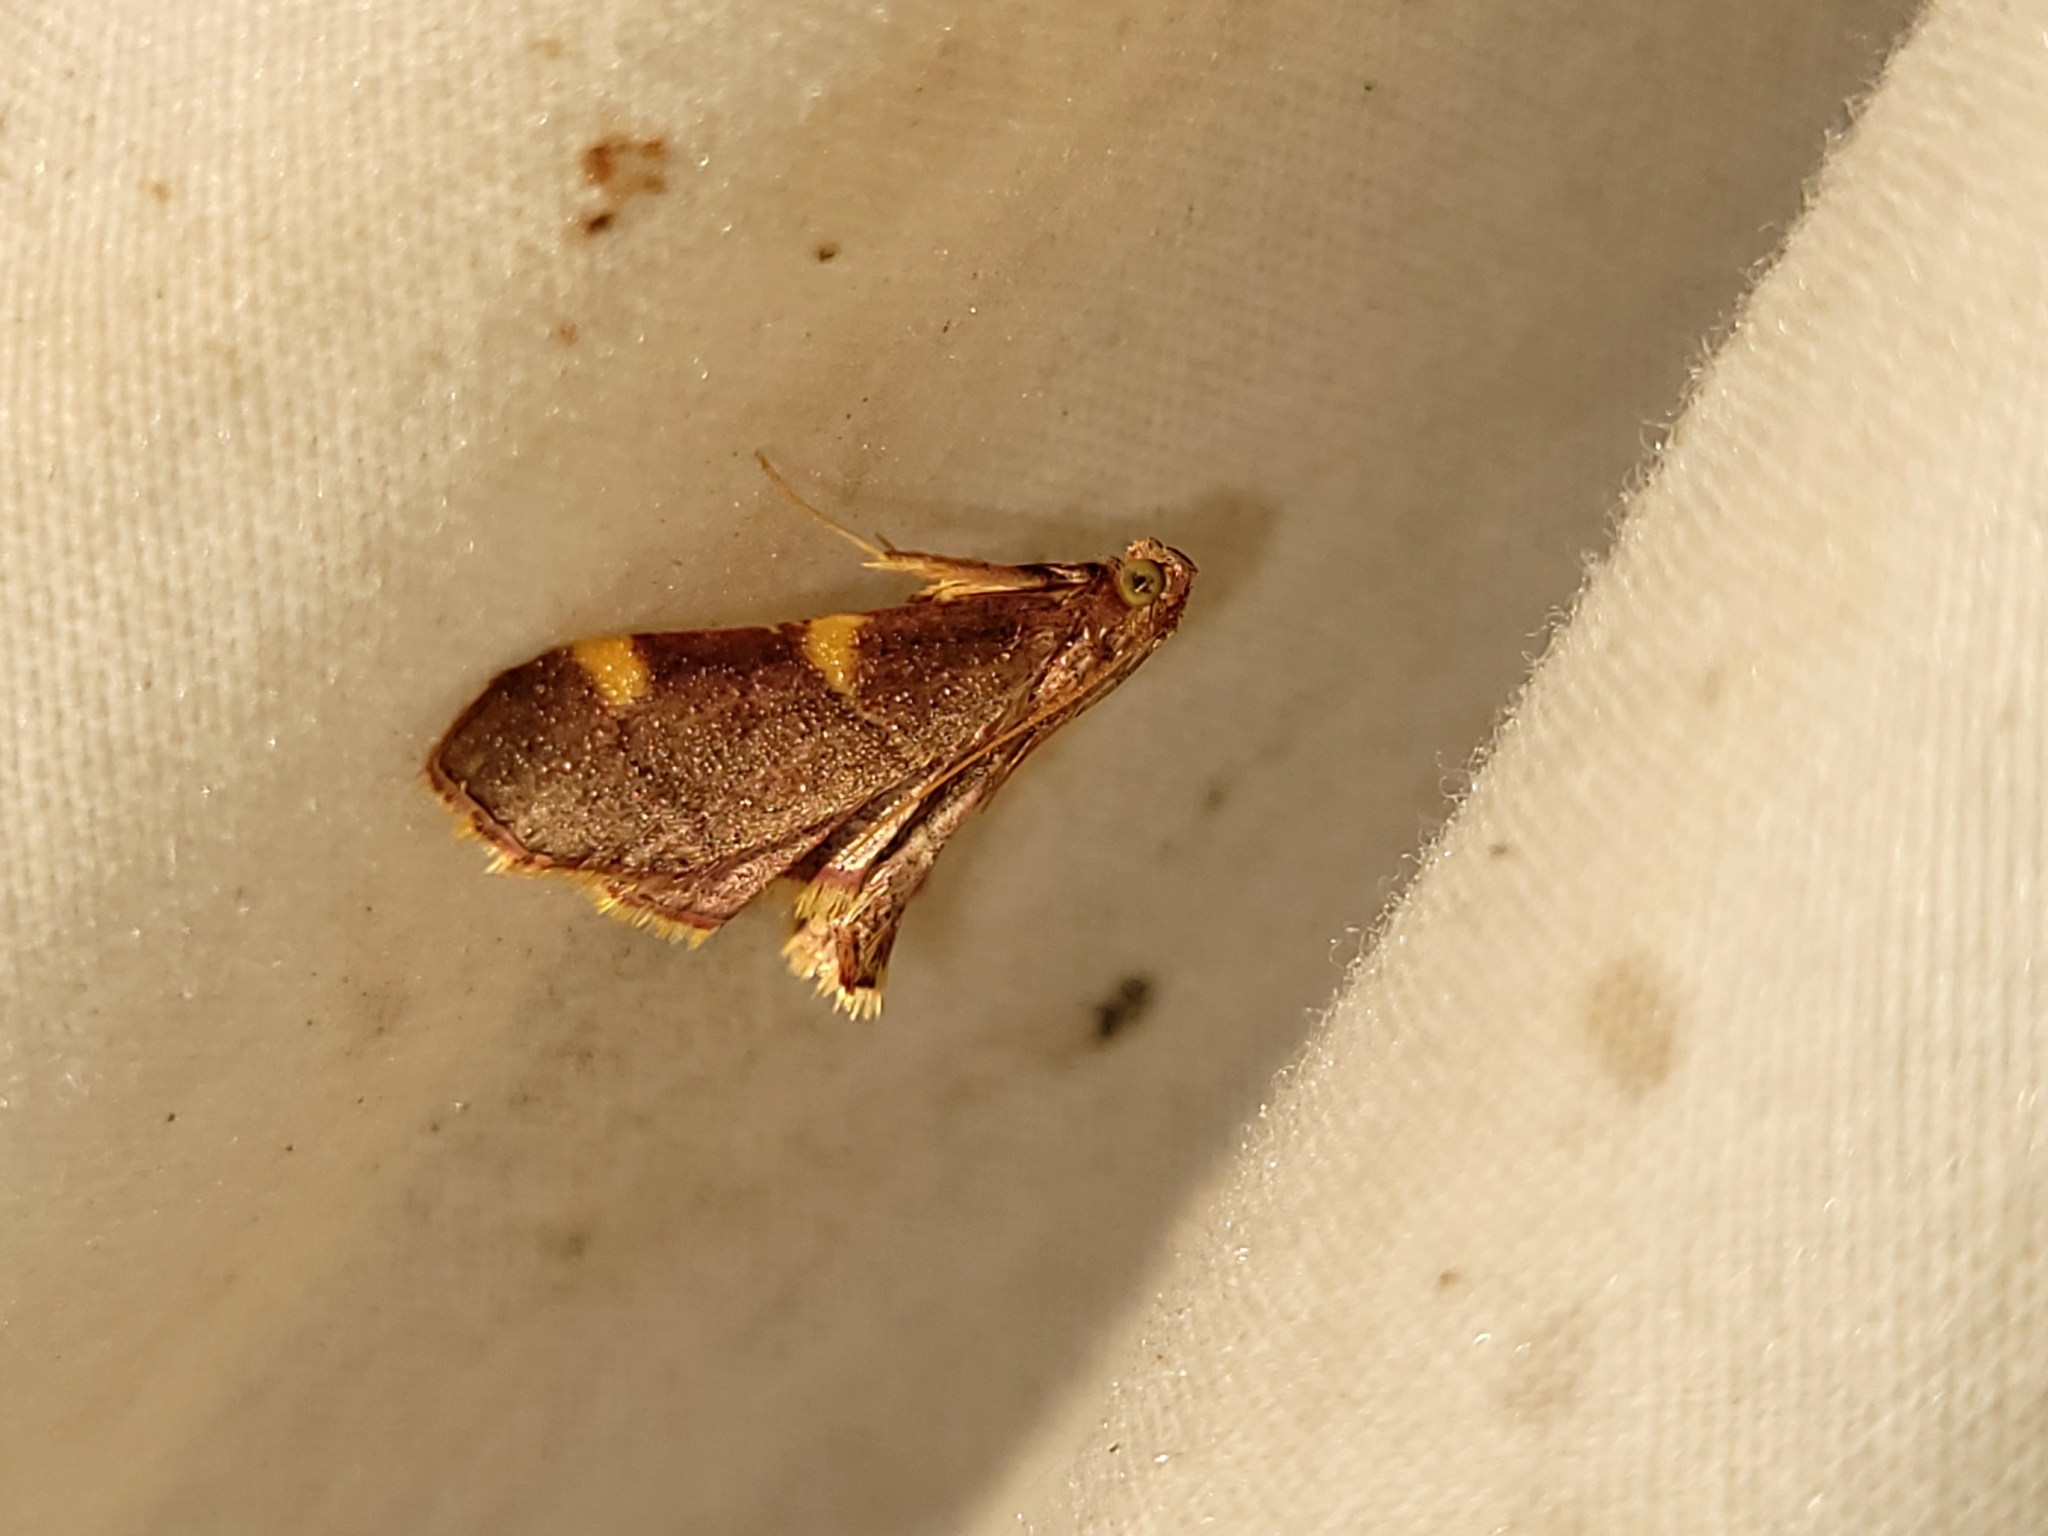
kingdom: Animalia
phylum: Arthropoda
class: Insecta
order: Lepidoptera
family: Pyralidae
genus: Hypsopygia
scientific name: Hypsopygia olinalis
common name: Yellow-fringed dolichomia moth
